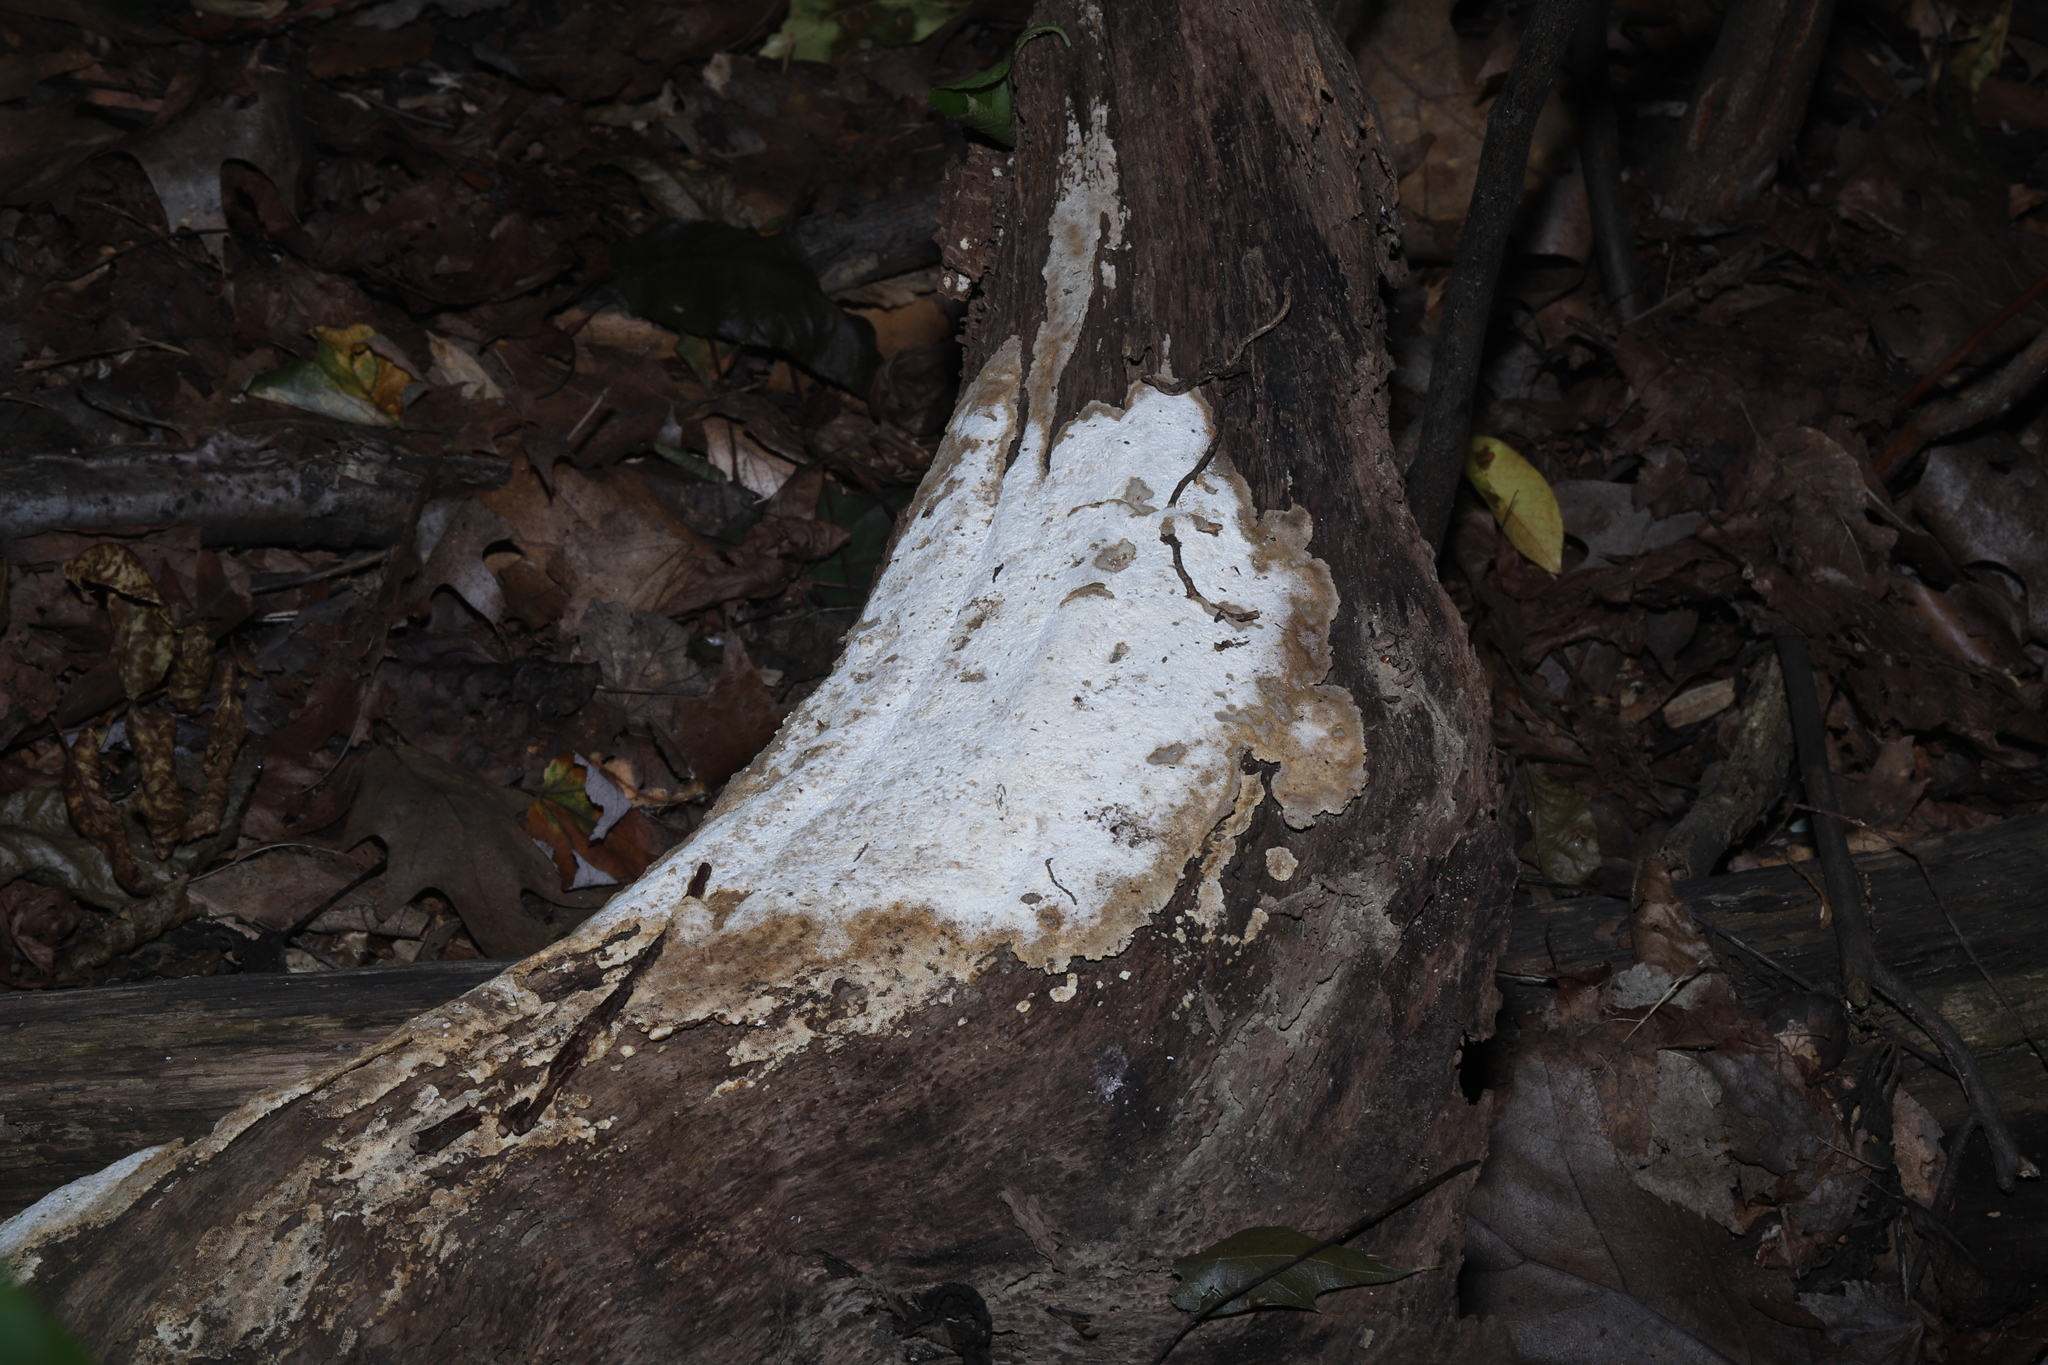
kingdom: Fungi
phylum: Basidiomycota
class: Agaricomycetes
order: Russulales
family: Stereaceae
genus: Xylobolus
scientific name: Xylobolus frustulatus
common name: Ceramic parchment
